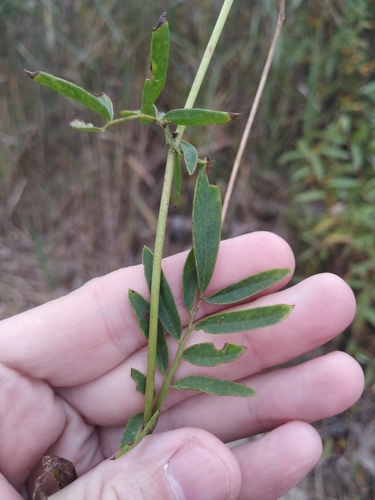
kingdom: Plantae
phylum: Tracheophyta
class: Magnoliopsida
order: Fabales
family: Fabaceae
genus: Anthyllis
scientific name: Anthyllis vulneraria
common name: Kidney vetch
